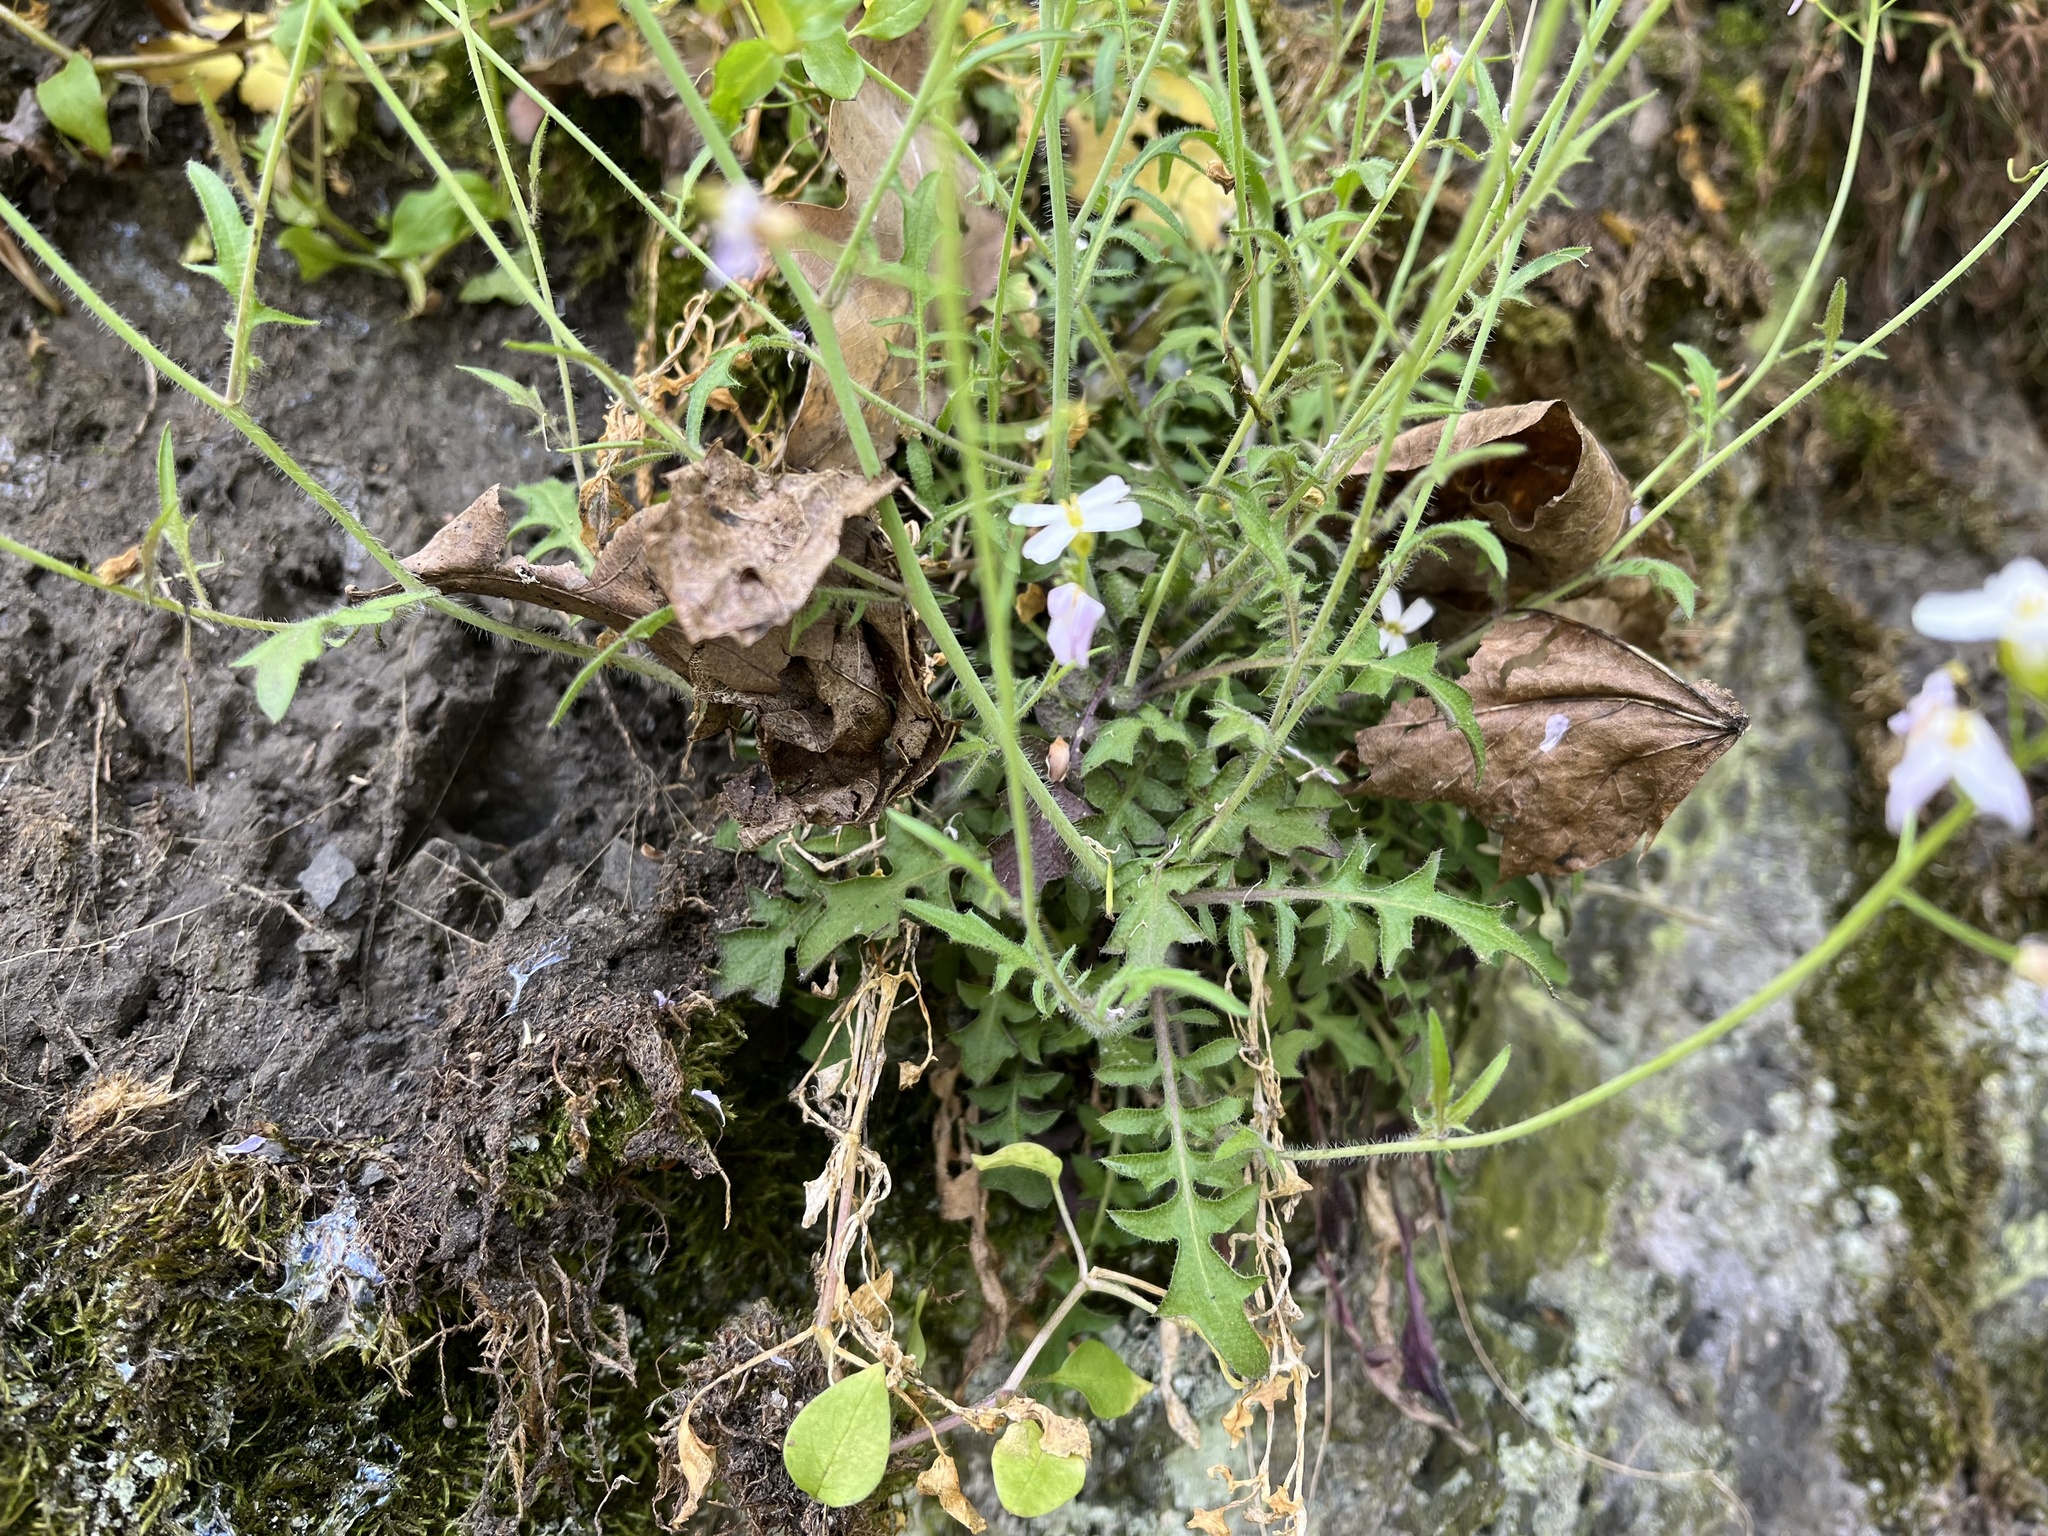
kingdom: Plantae
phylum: Tracheophyta
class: Magnoliopsida
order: Brassicales
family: Brassicaceae
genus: Arabidopsis
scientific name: Arabidopsis arenosa
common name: Sand rock-cress
